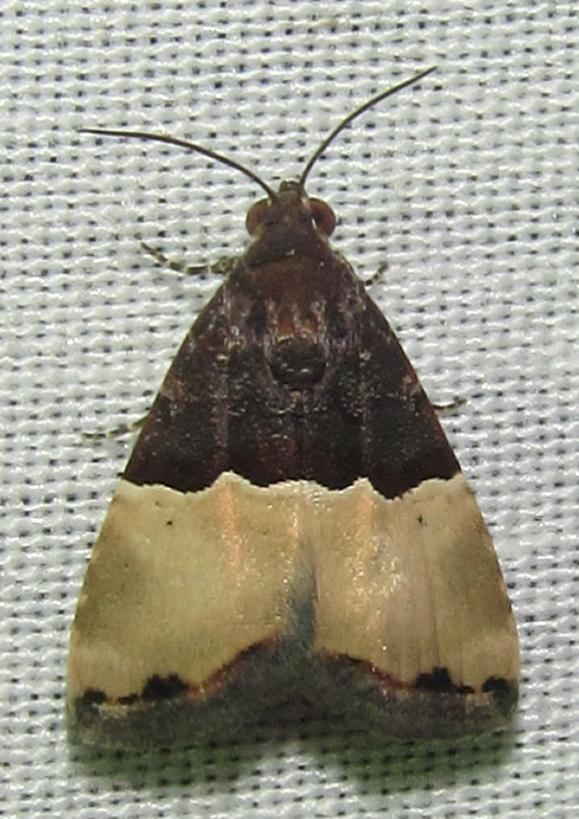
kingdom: Animalia
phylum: Arthropoda
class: Insecta
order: Lepidoptera
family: Noctuidae
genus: Ozarba
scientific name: Ozarba hemiochra
